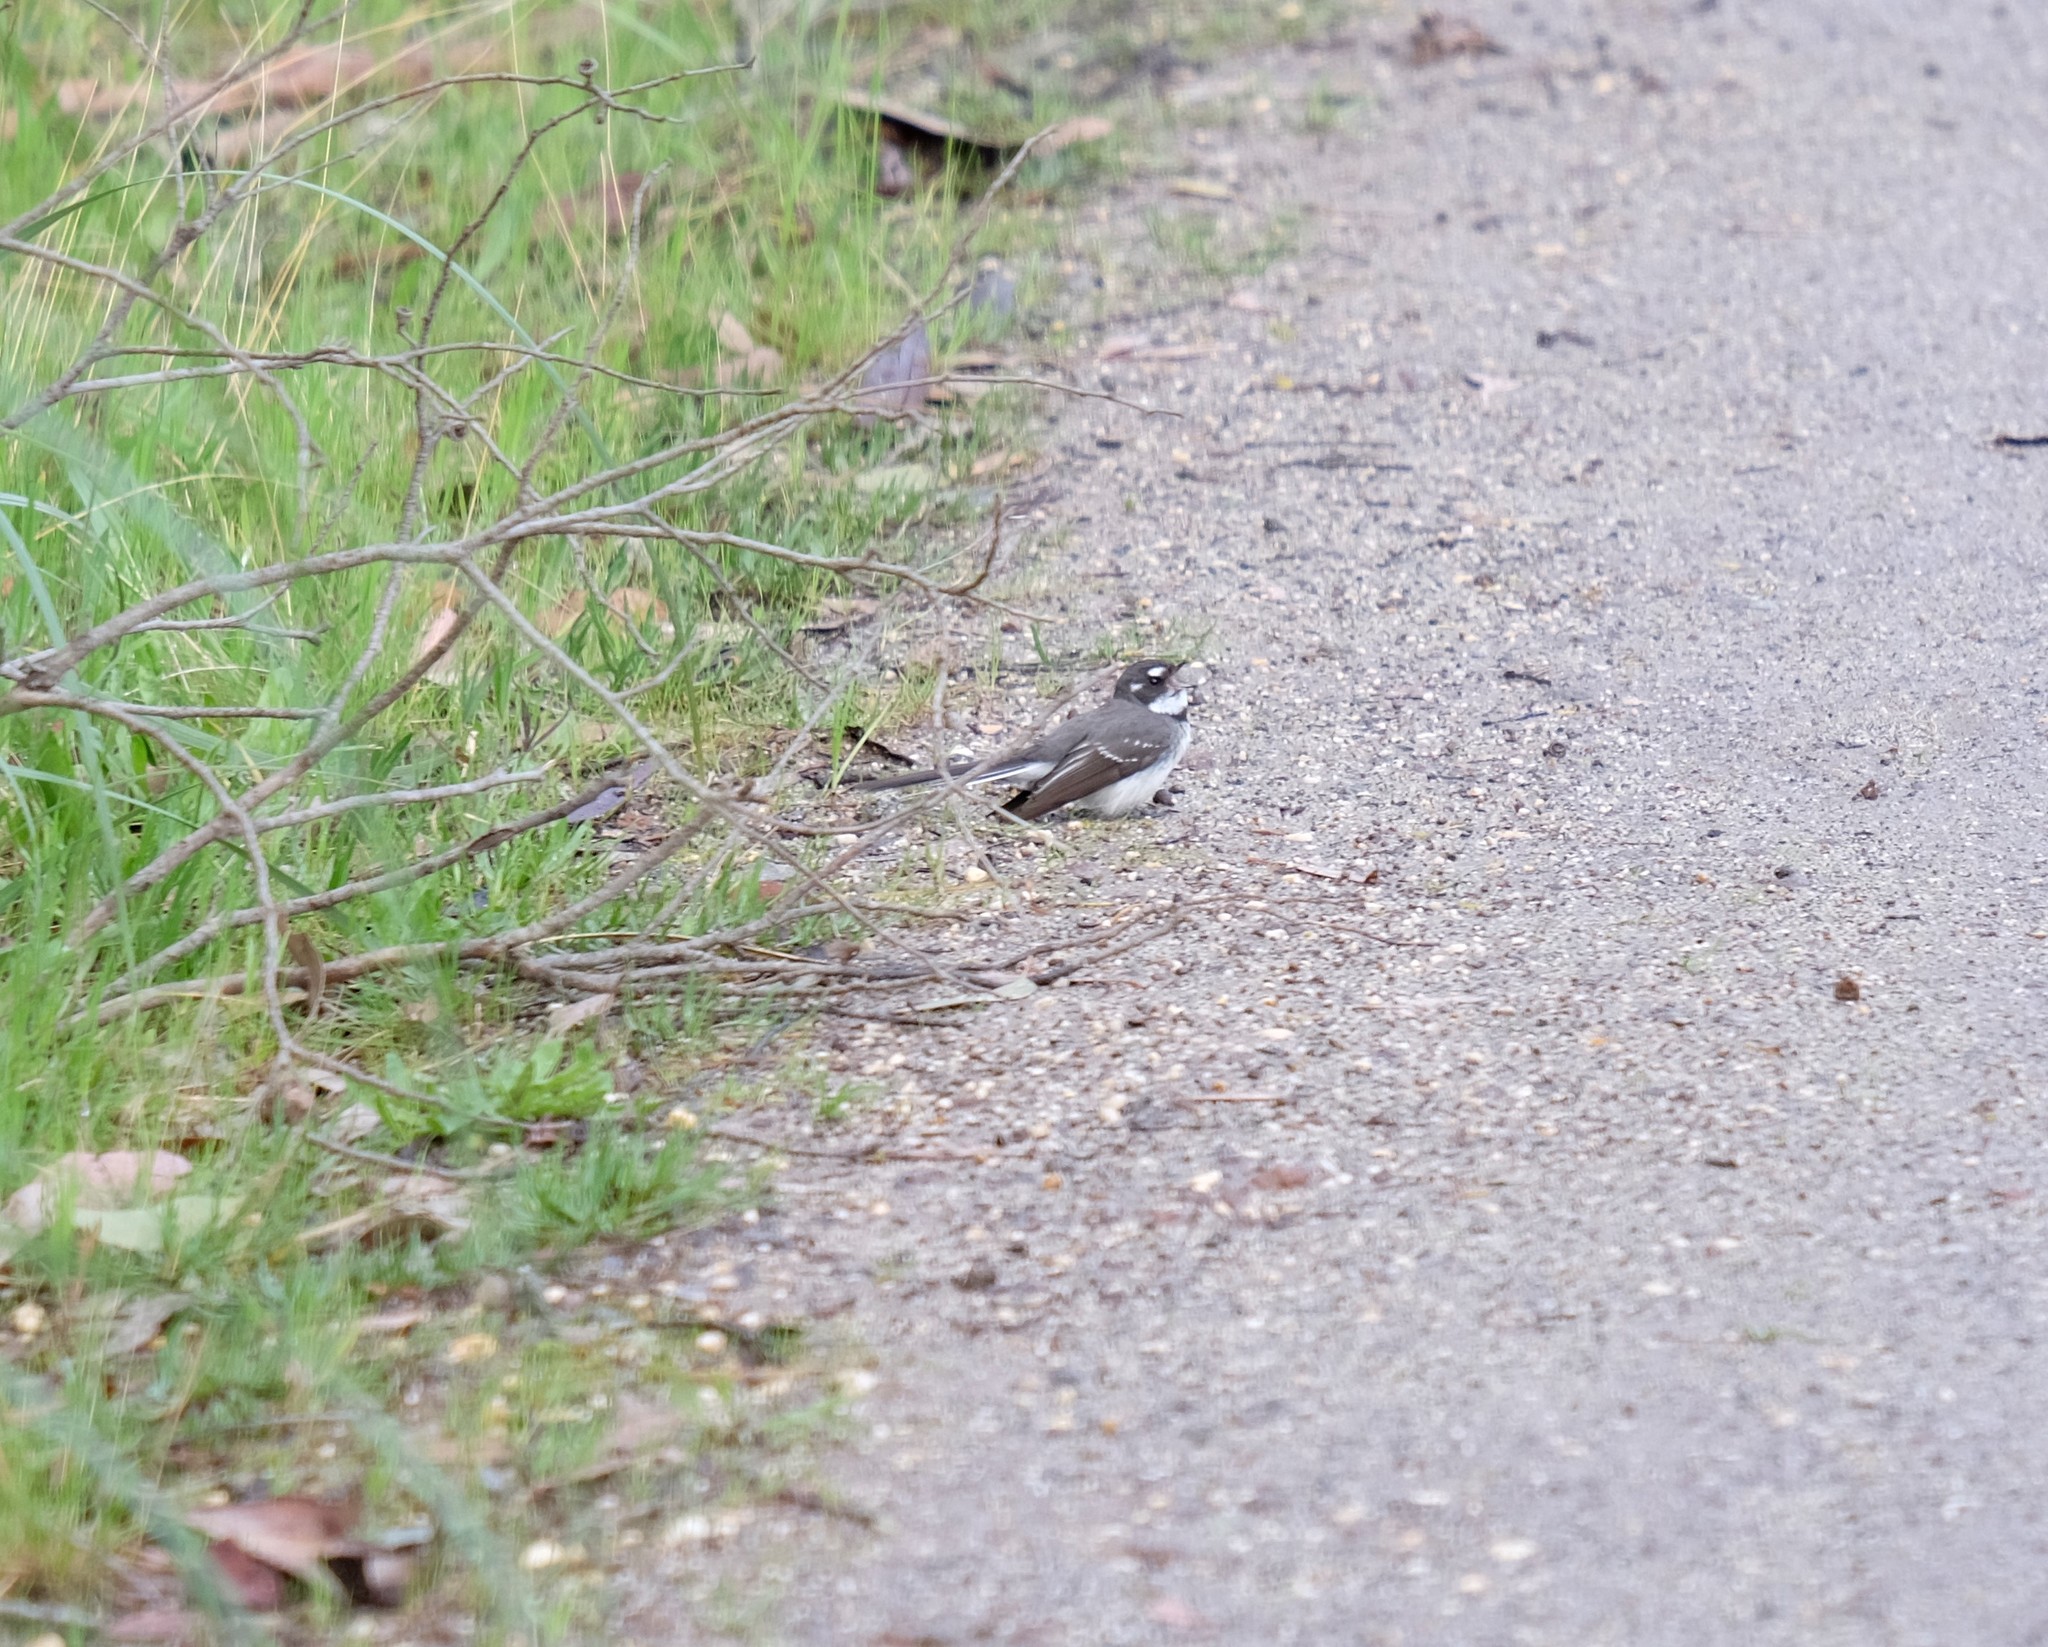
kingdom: Animalia
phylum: Chordata
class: Aves
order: Passeriformes
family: Rhipiduridae
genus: Rhipidura
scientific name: Rhipidura albiscapa
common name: Grey fantail
